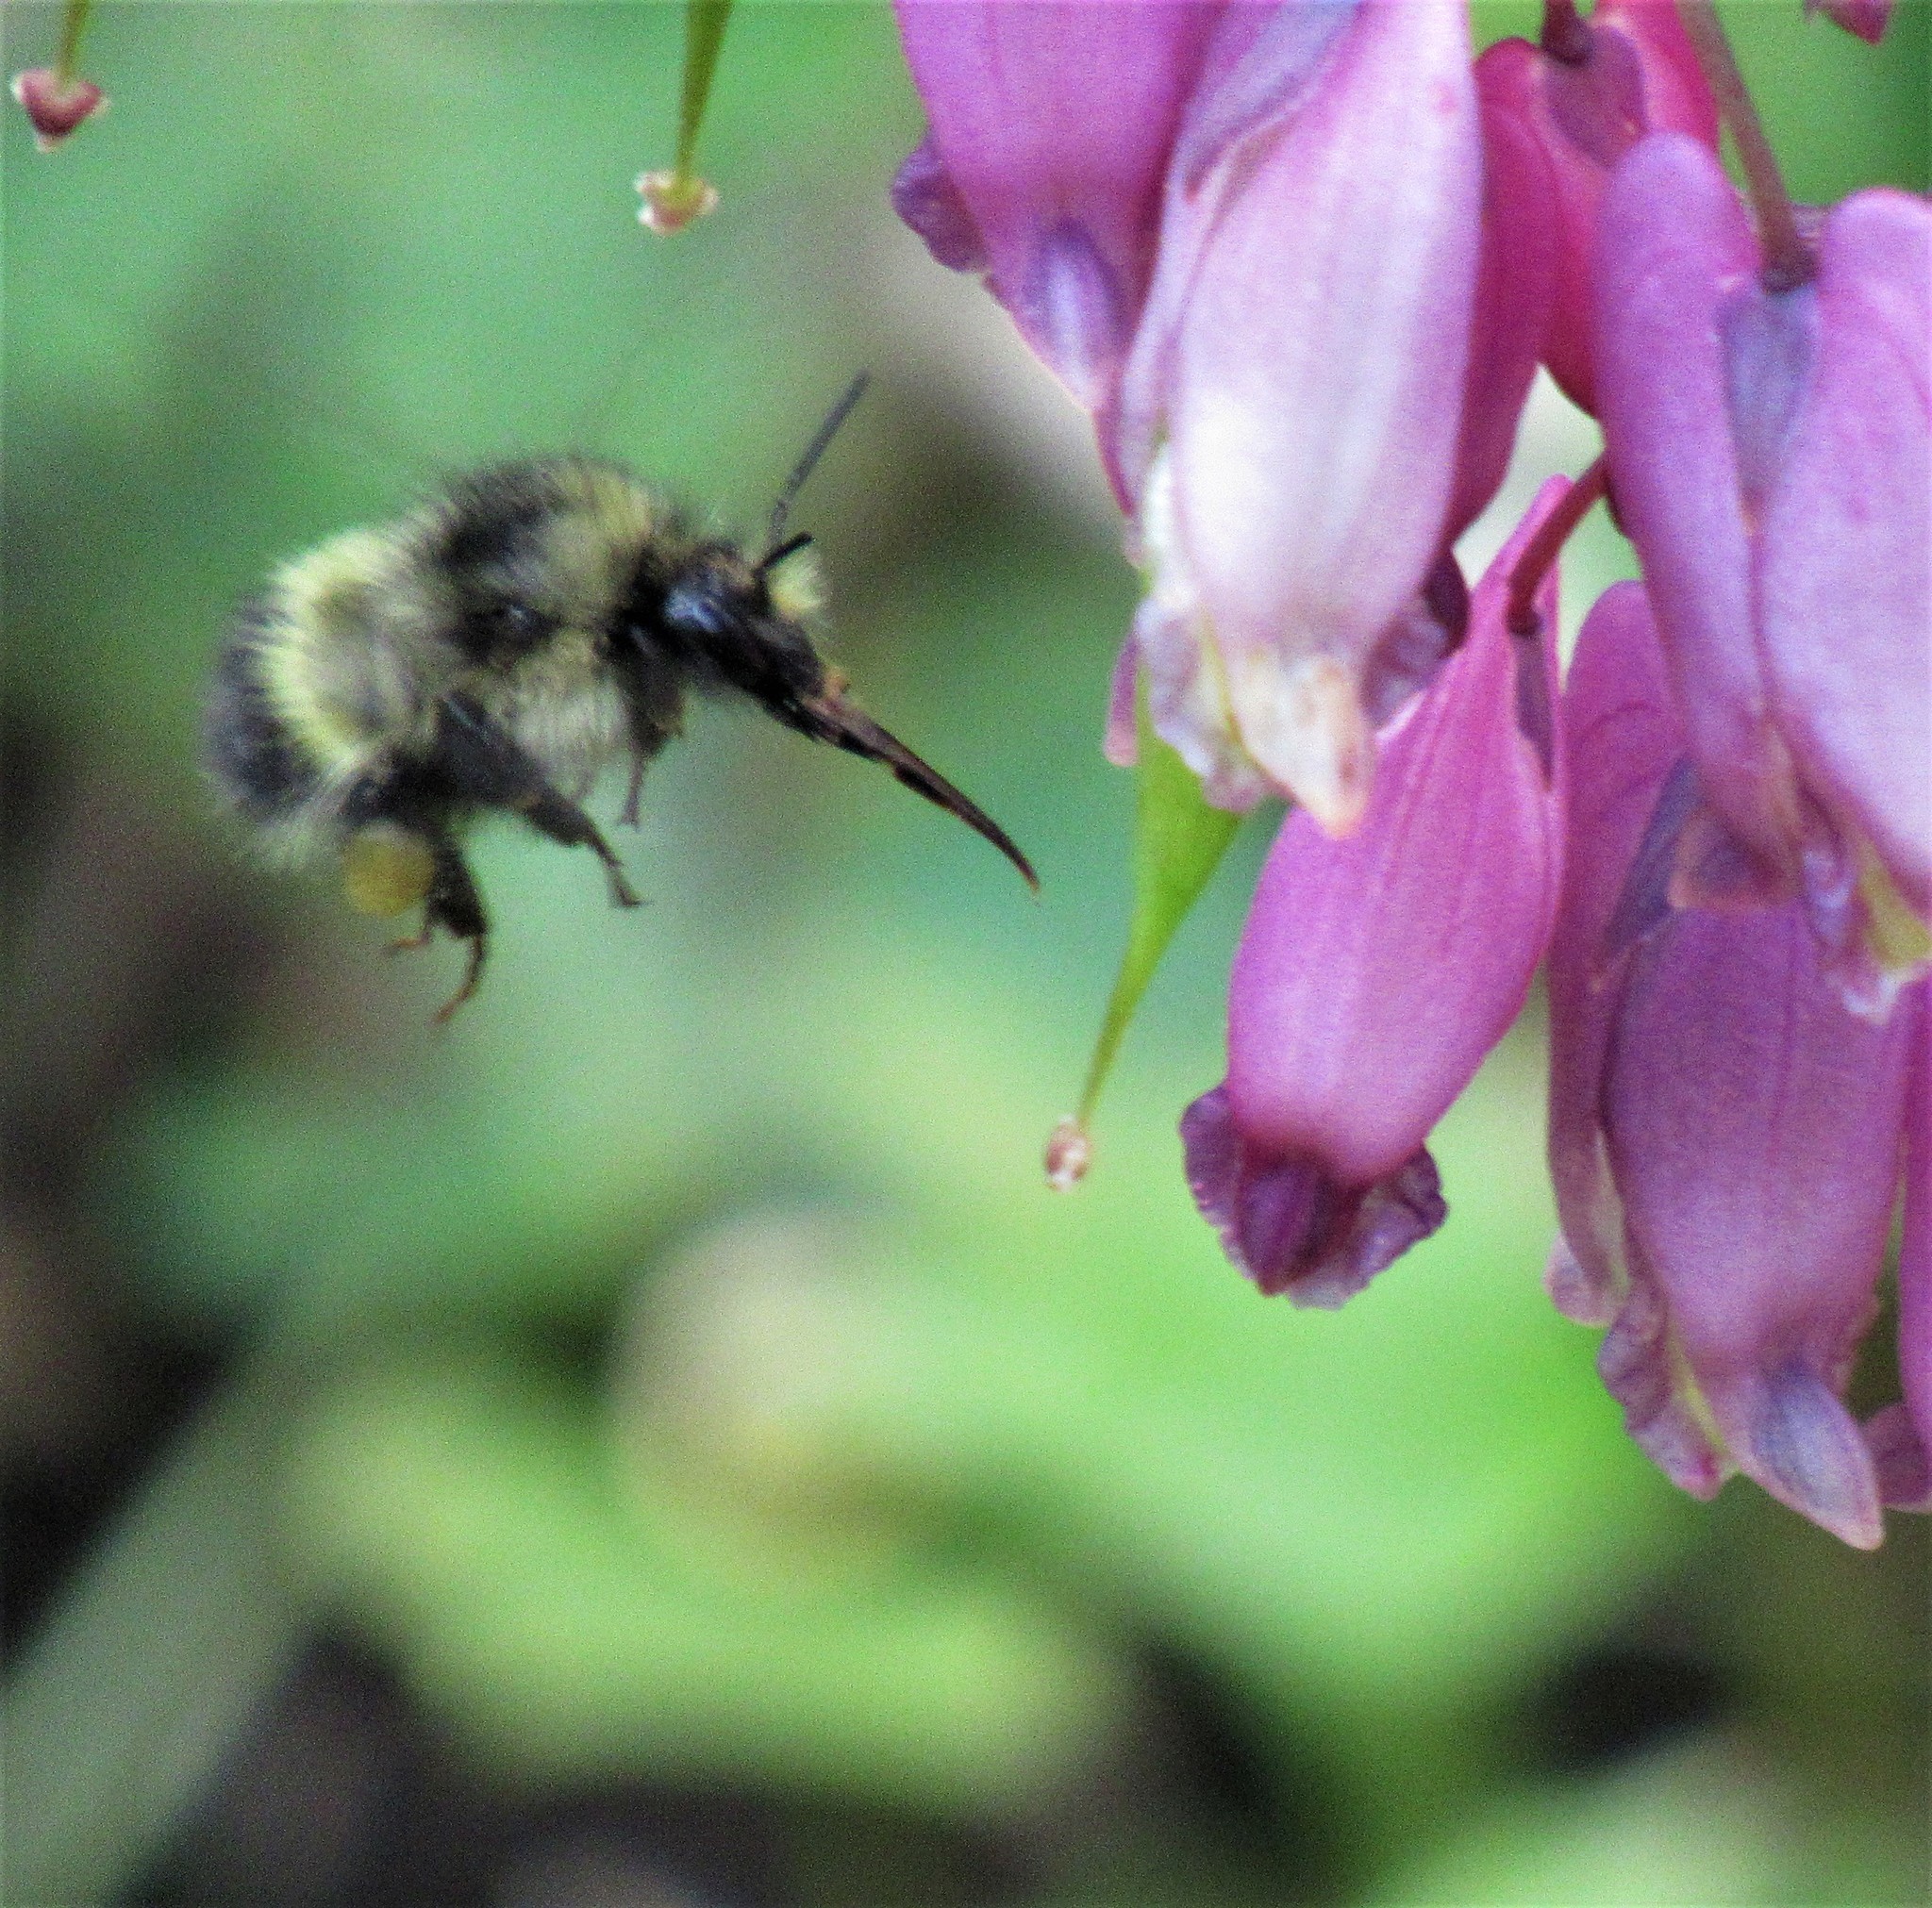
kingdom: Animalia
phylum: Arthropoda
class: Insecta
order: Hymenoptera
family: Apidae
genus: Bombus
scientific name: Bombus flavifrons
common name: Yellow head bumble bee
